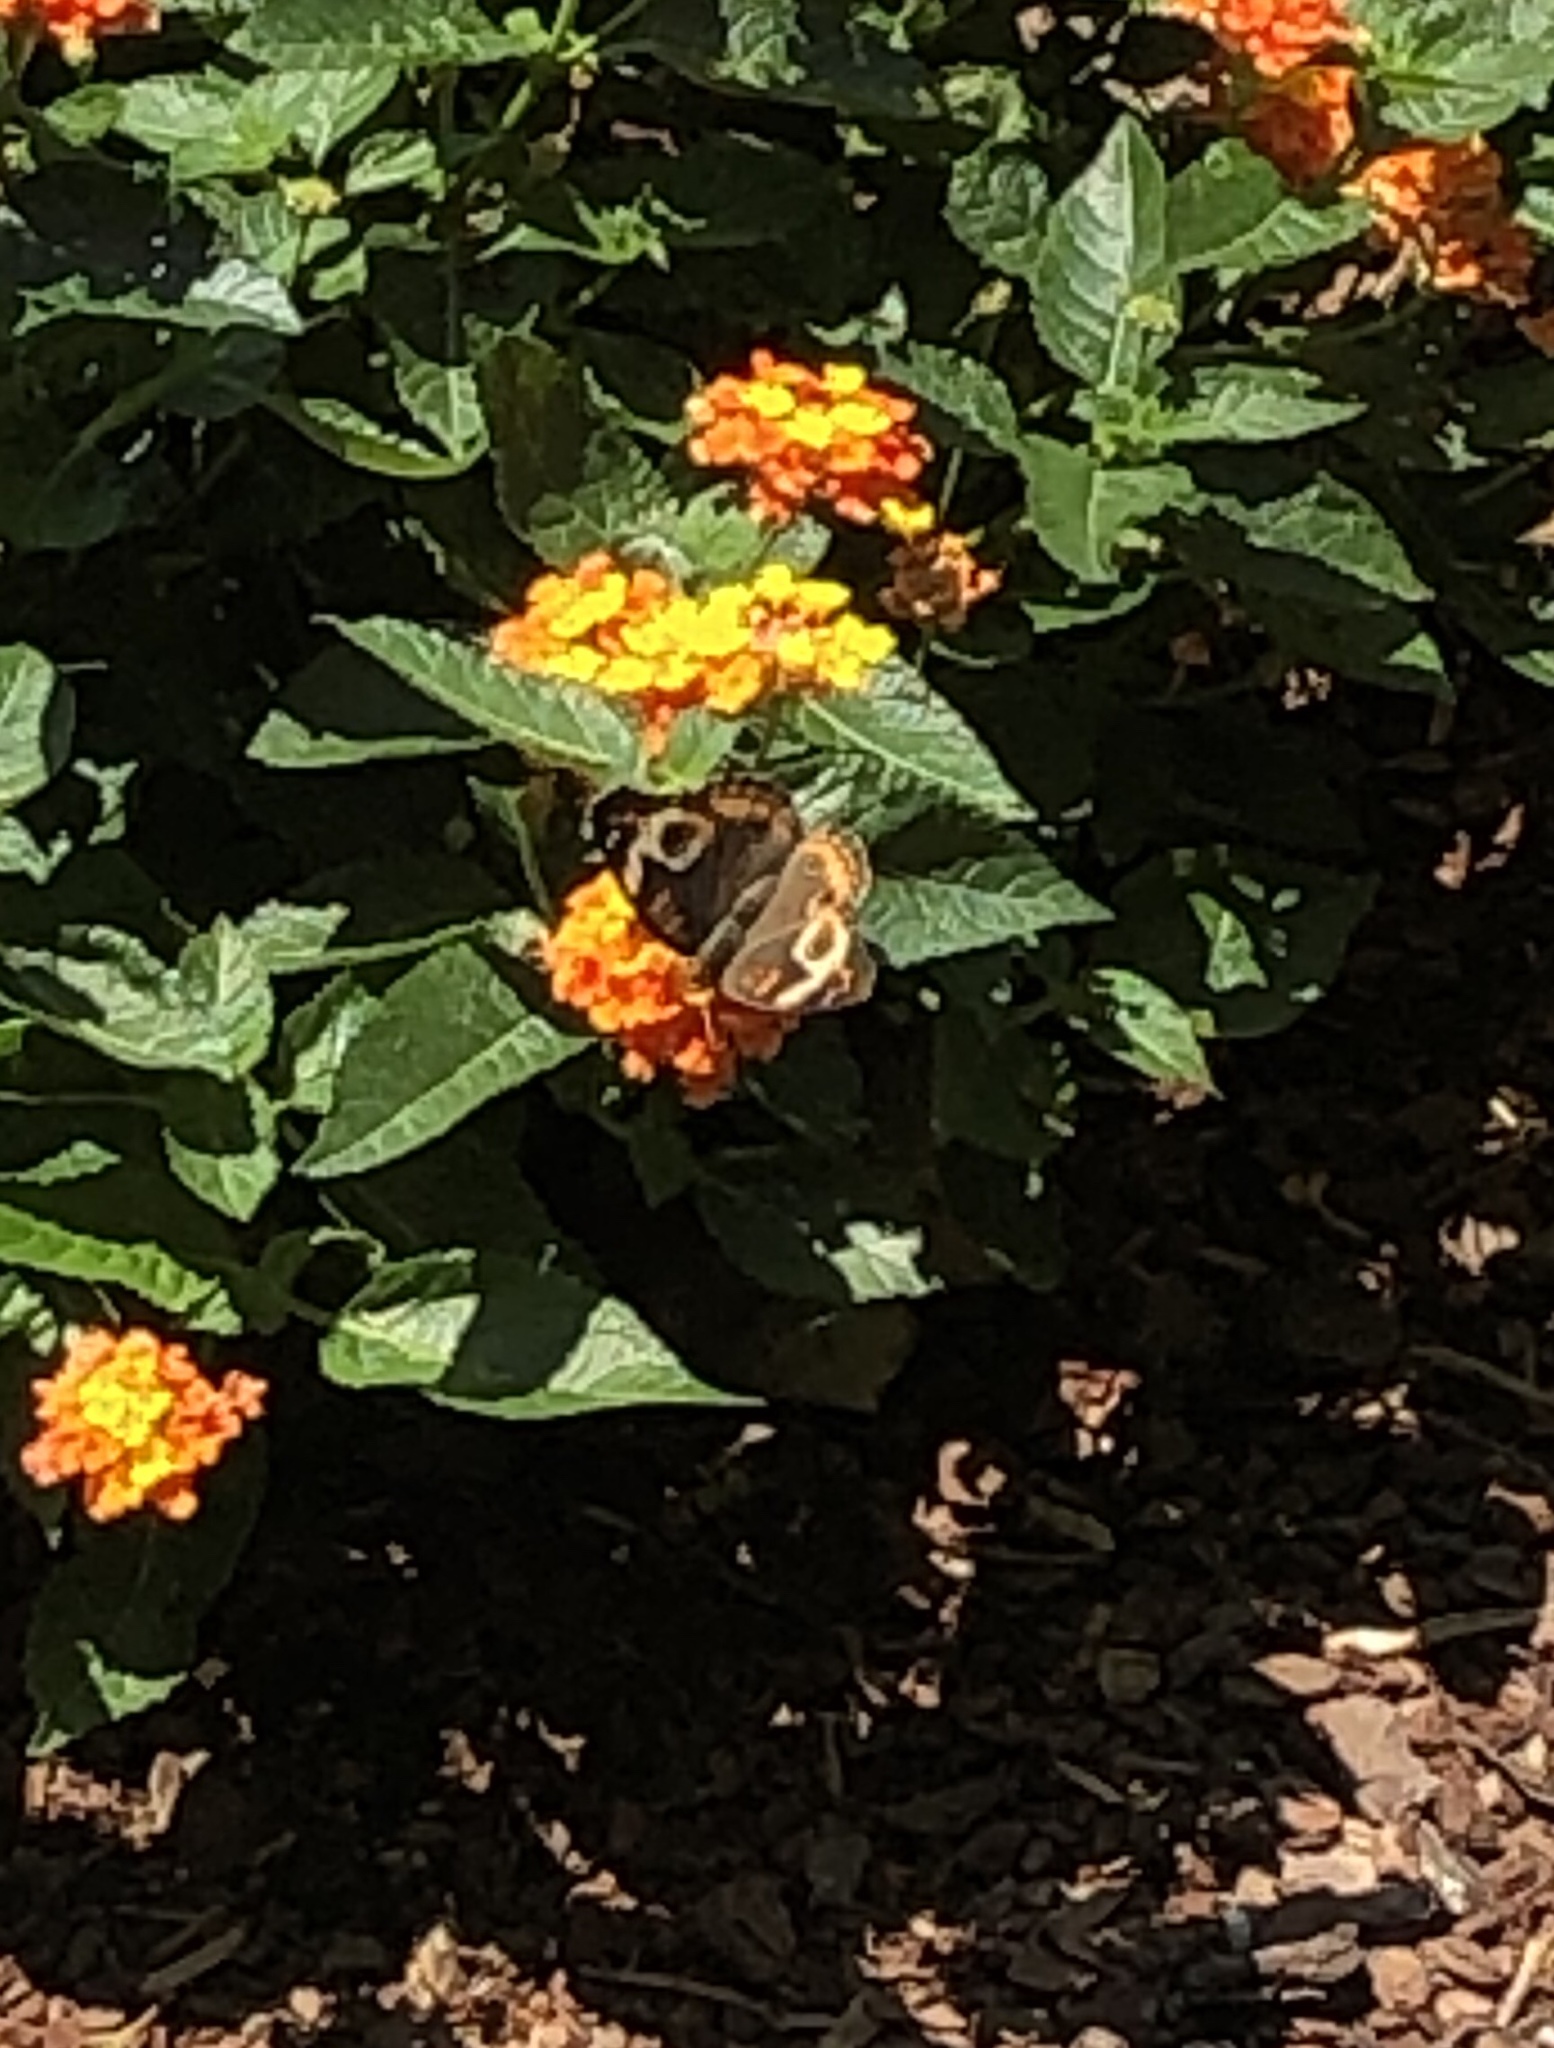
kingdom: Animalia
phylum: Arthropoda
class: Insecta
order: Lepidoptera
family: Nymphalidae
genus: Junonia
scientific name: Junonia coenia
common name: Common buckeye
